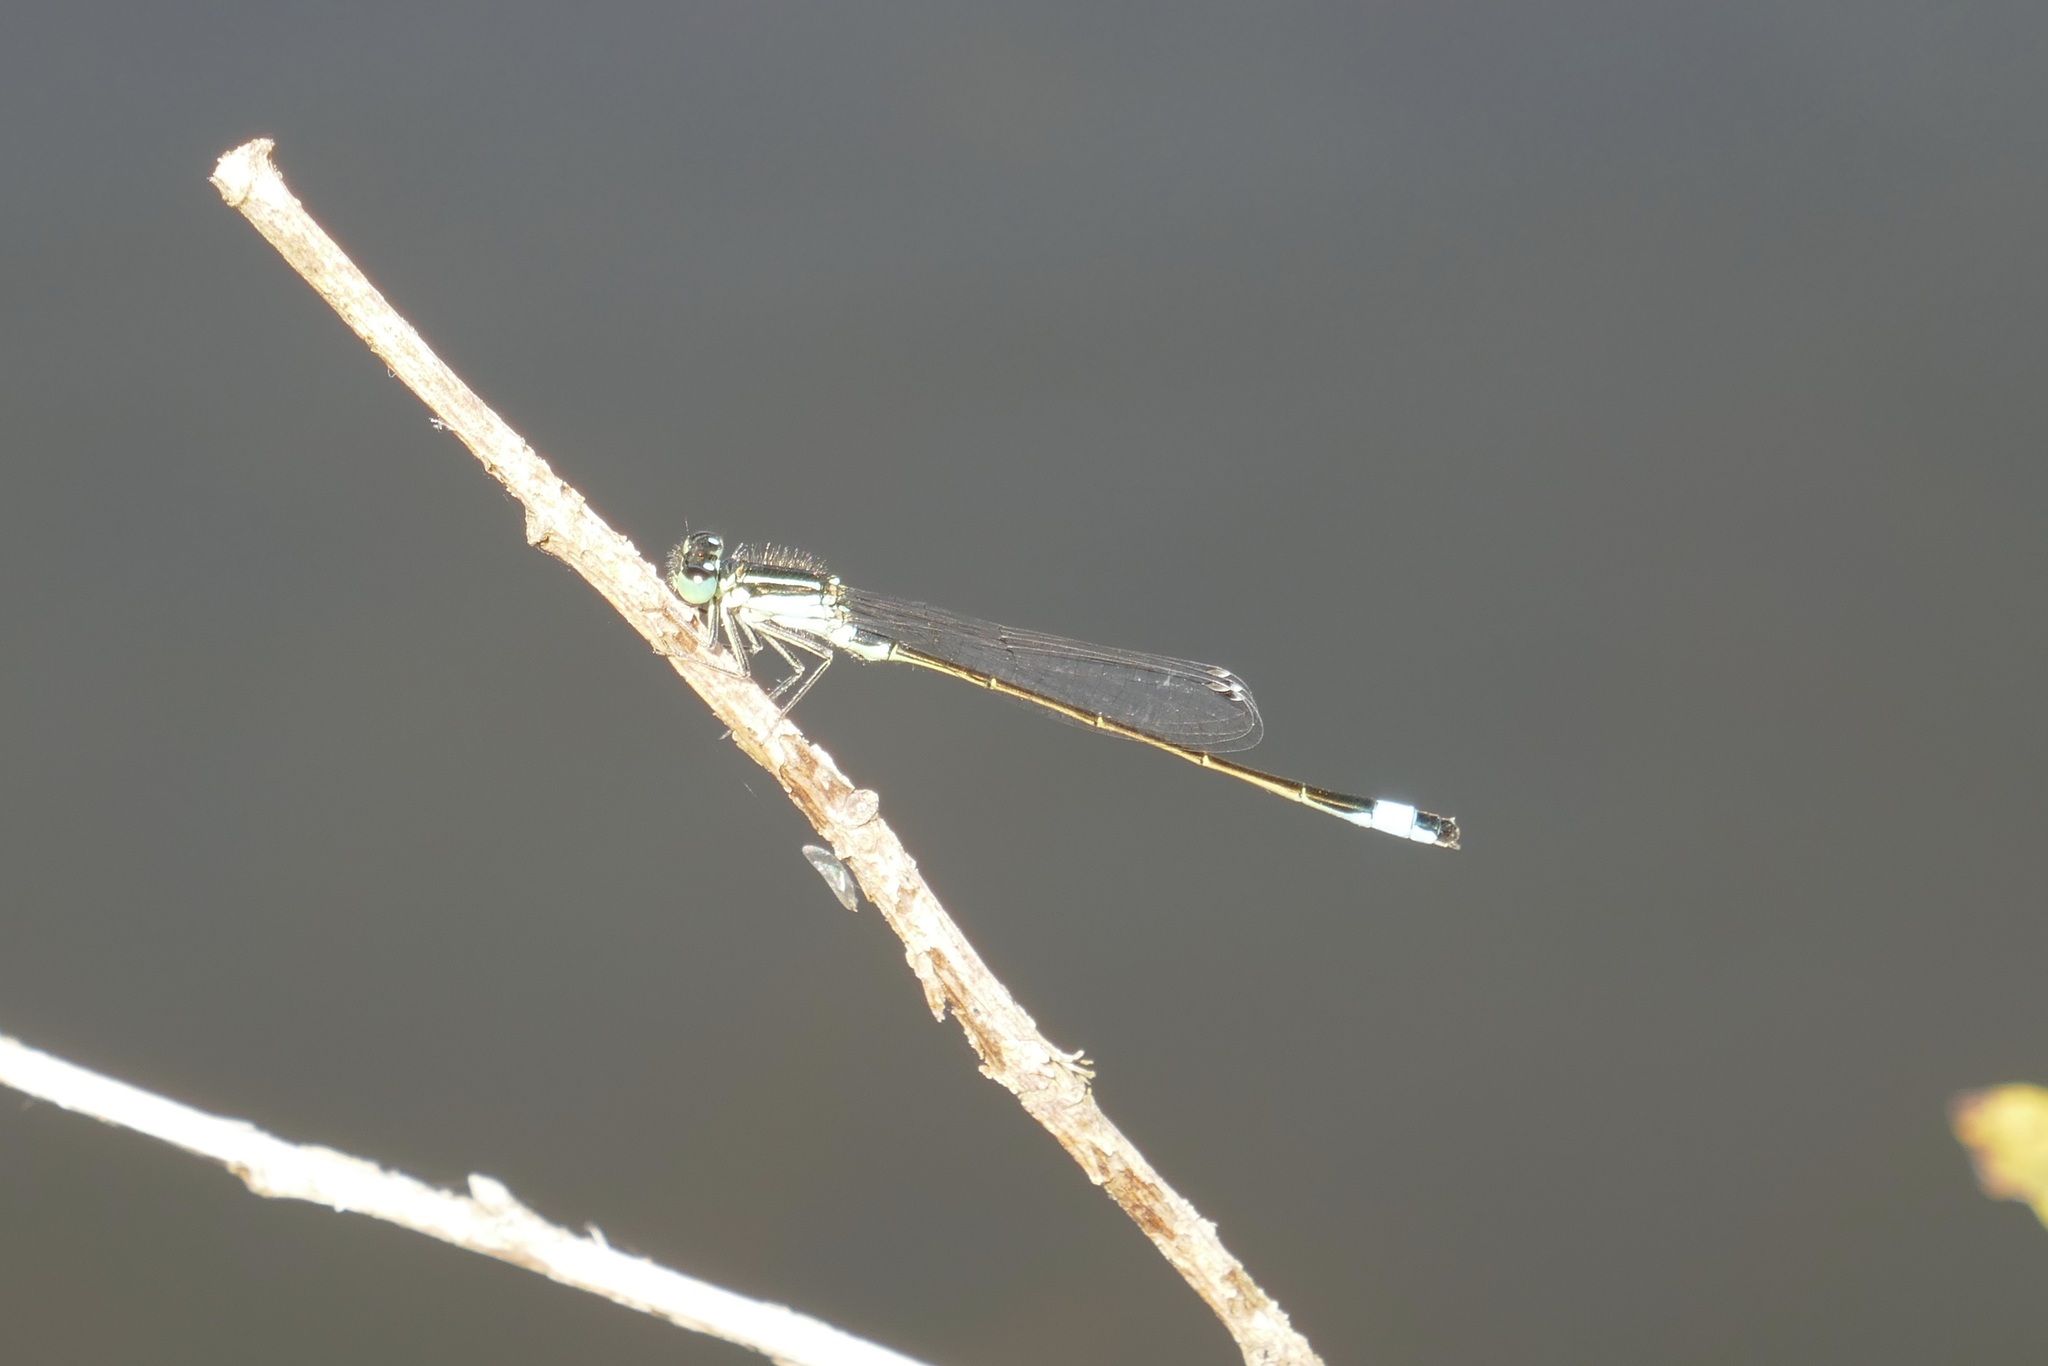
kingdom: Animalia
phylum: Arthropoda
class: Insecta
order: Odonata
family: Coenagrionidae
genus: Ischnura
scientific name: Ischnura elegans
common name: Blue-tailed damselfly
